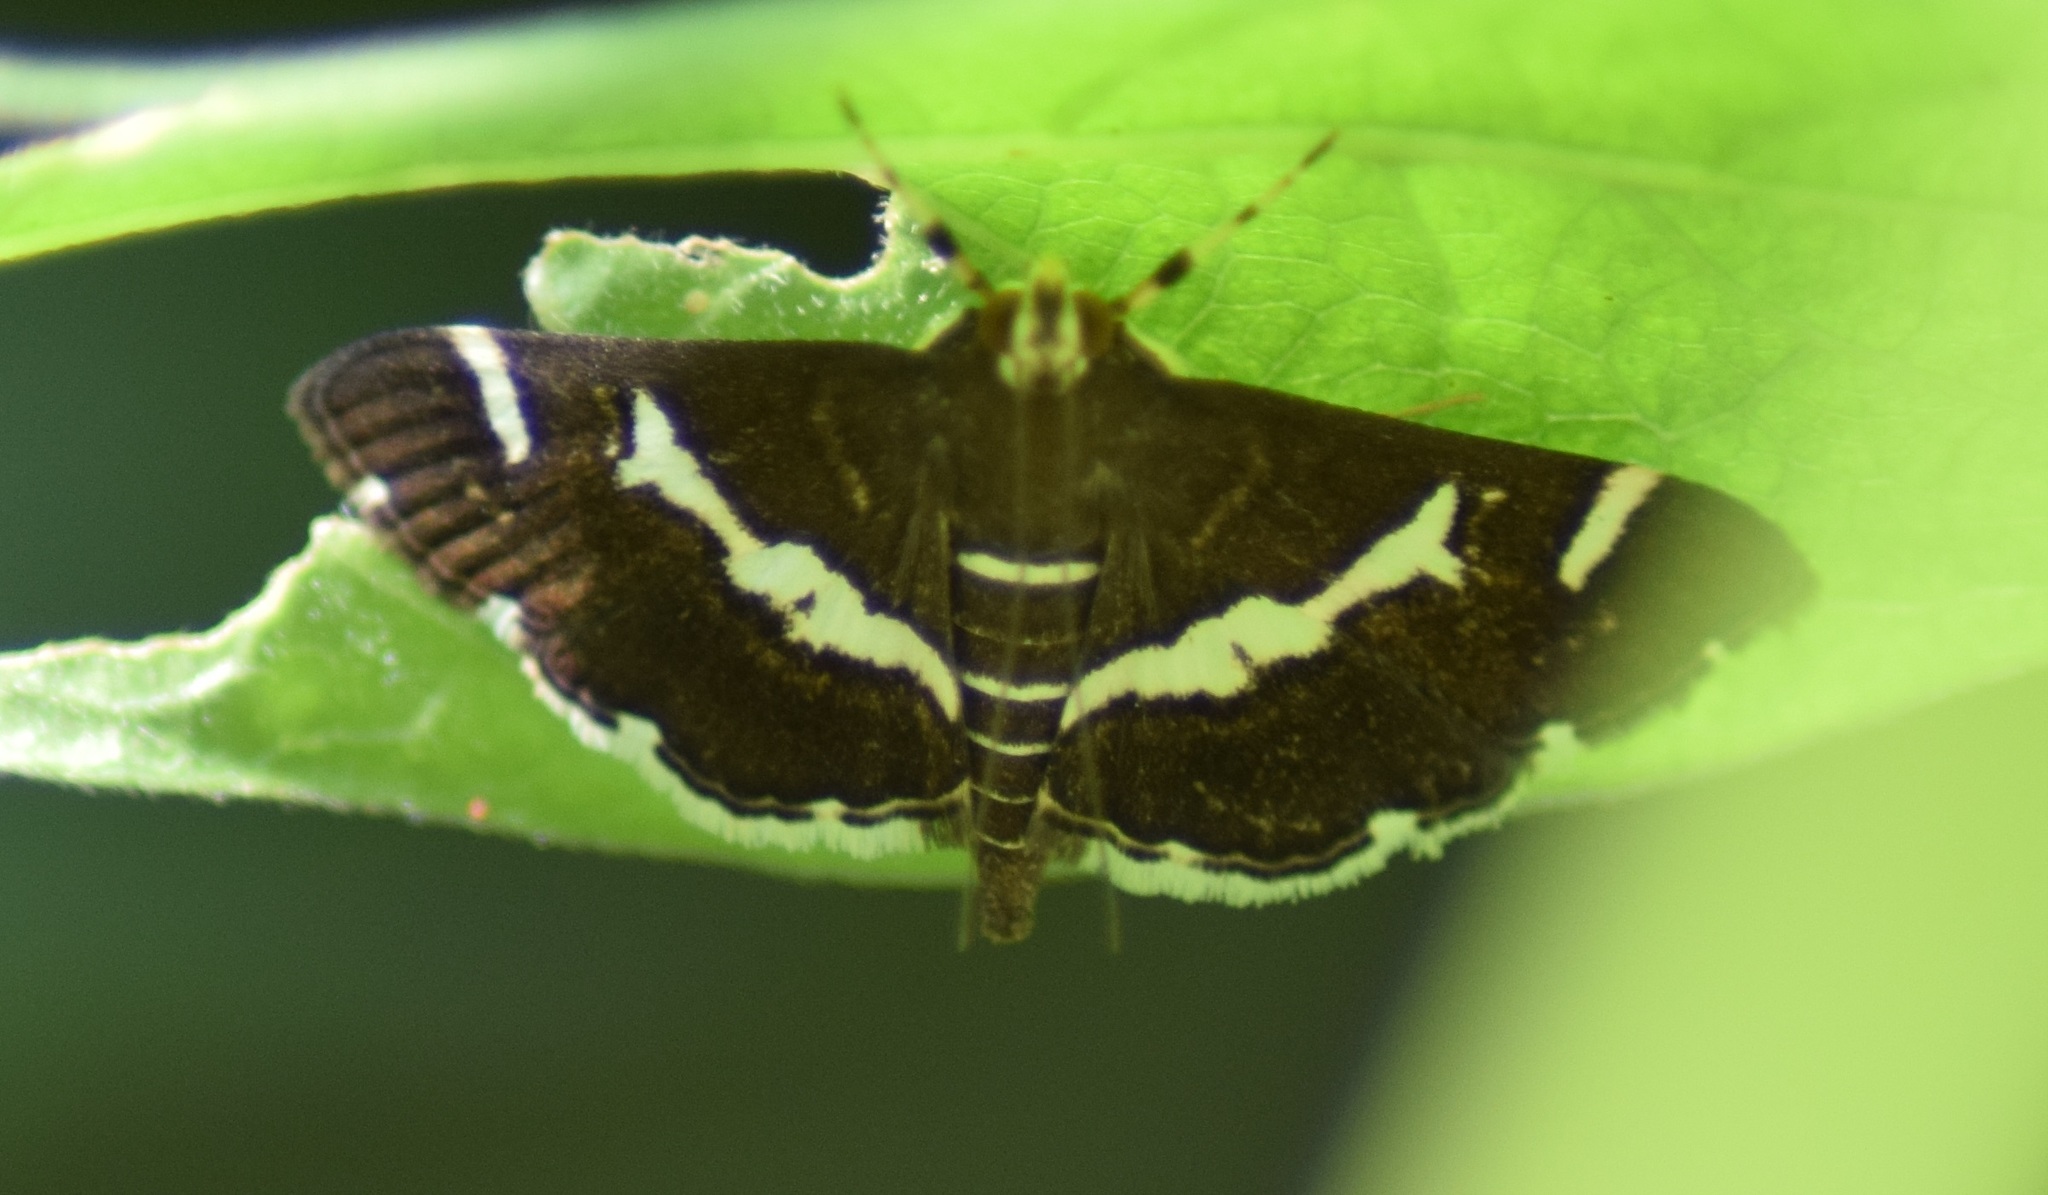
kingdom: Animalia
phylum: Arthropoda
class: Insecta
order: Lepidoptera
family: Crambidae
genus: Spoladea
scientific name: Spoladea recurvalis
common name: Beet webworm moth
